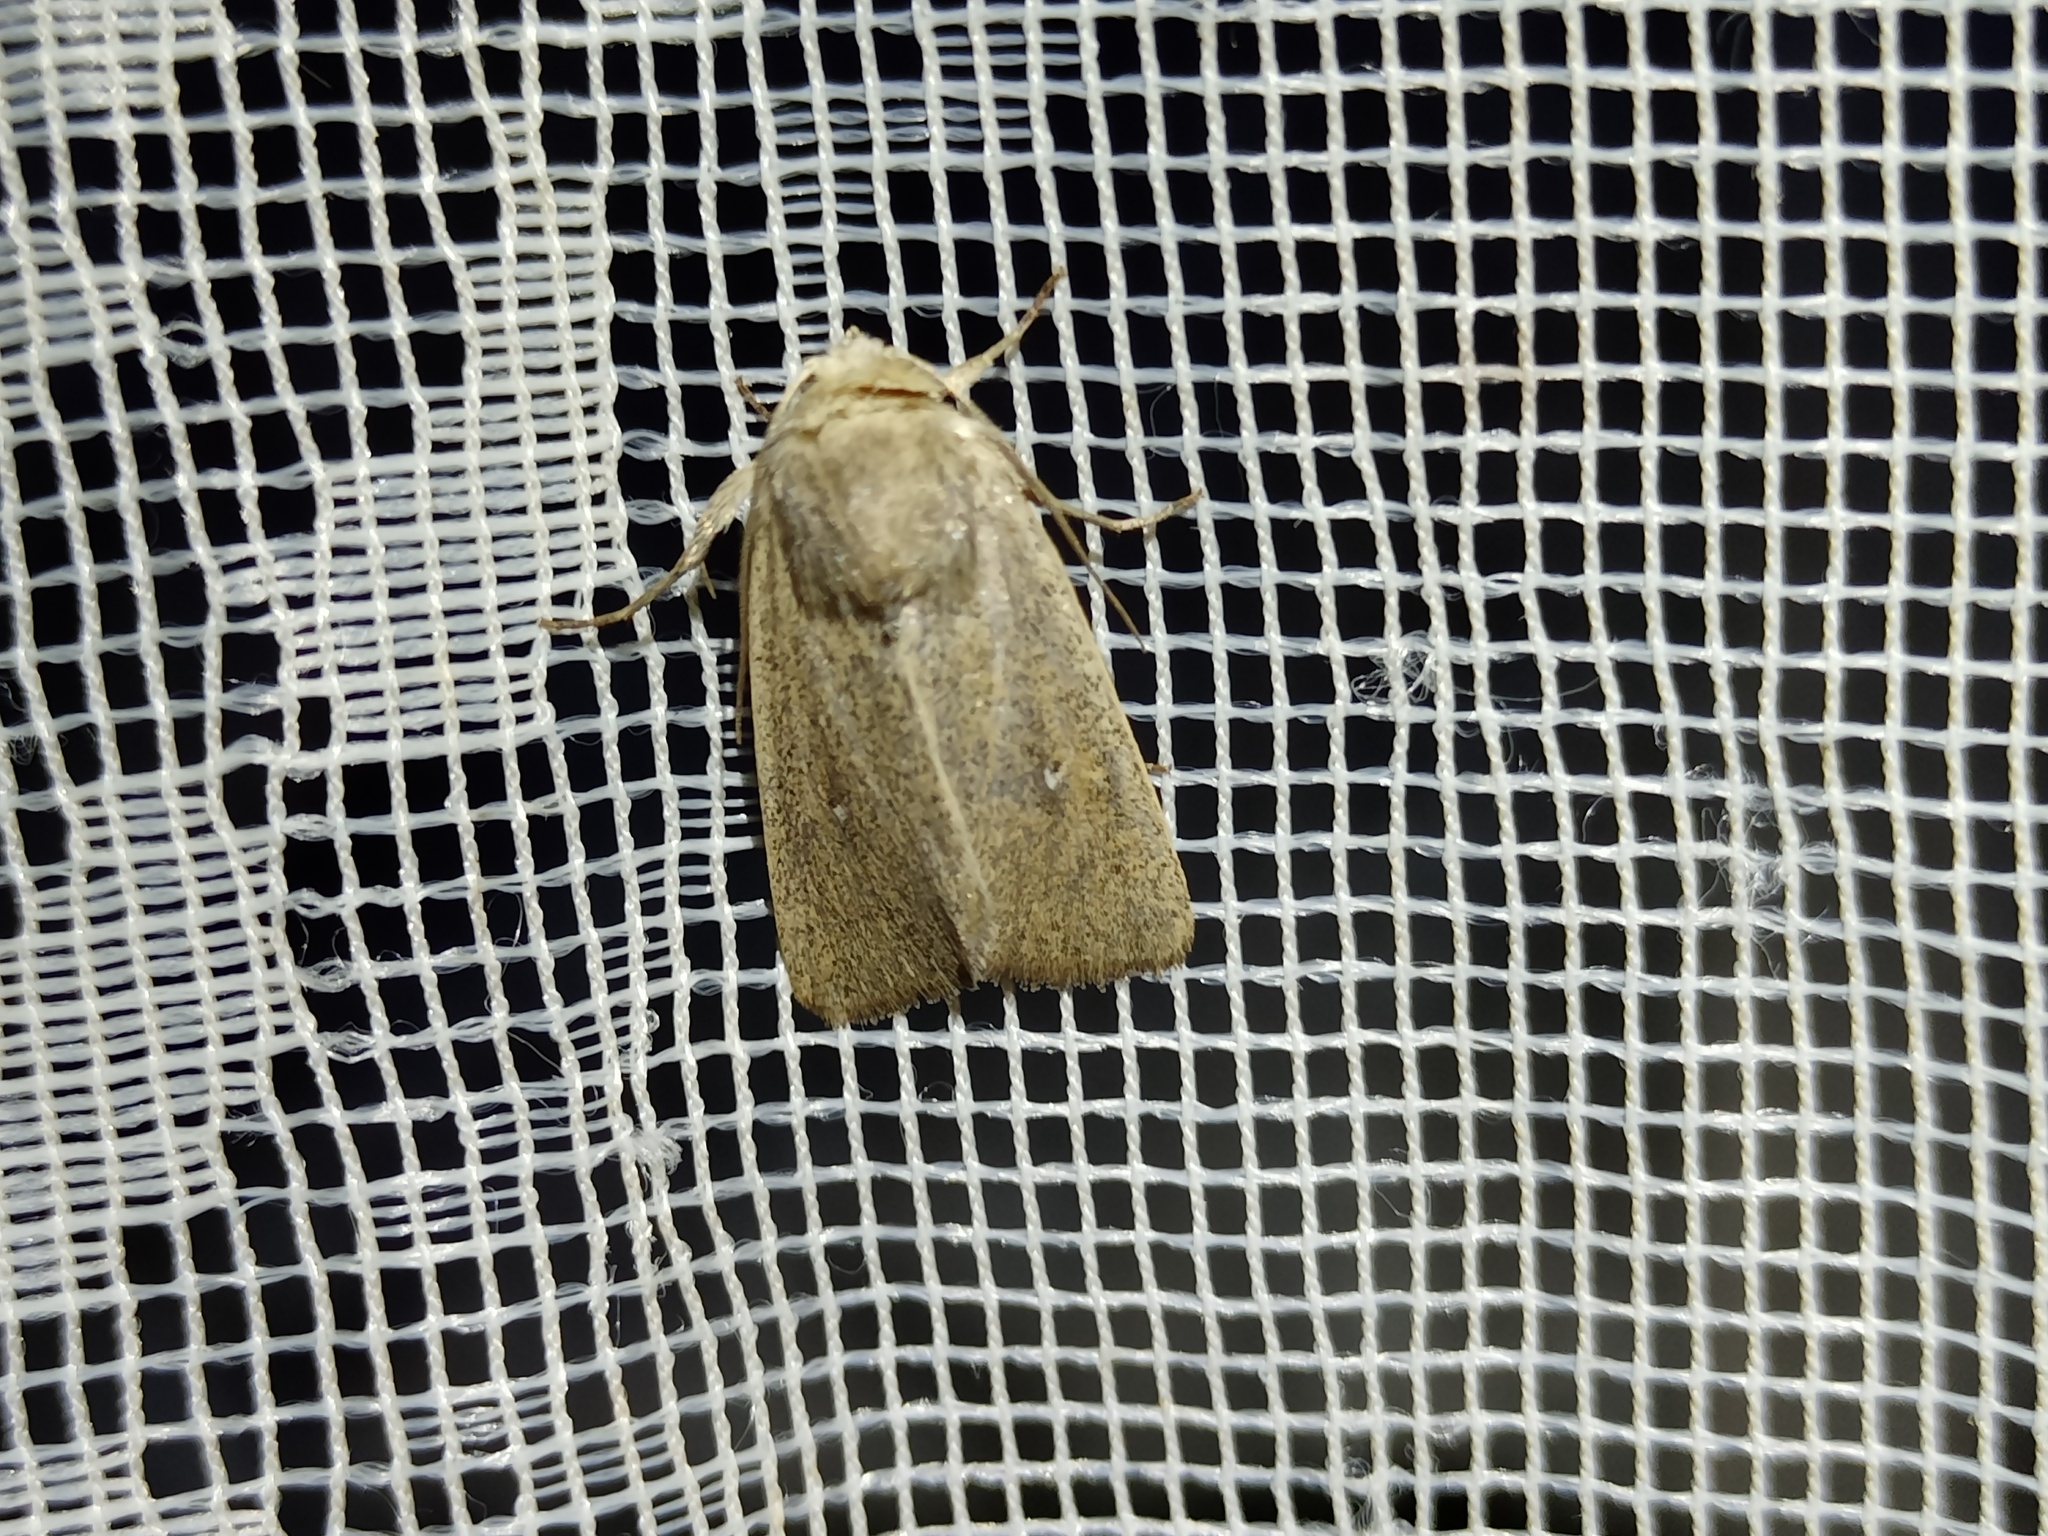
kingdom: Animalia
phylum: Arthropoda
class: Insecta
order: Lepidoptera
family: Noctuidae
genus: Mythimna
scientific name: Mythimna sicula
